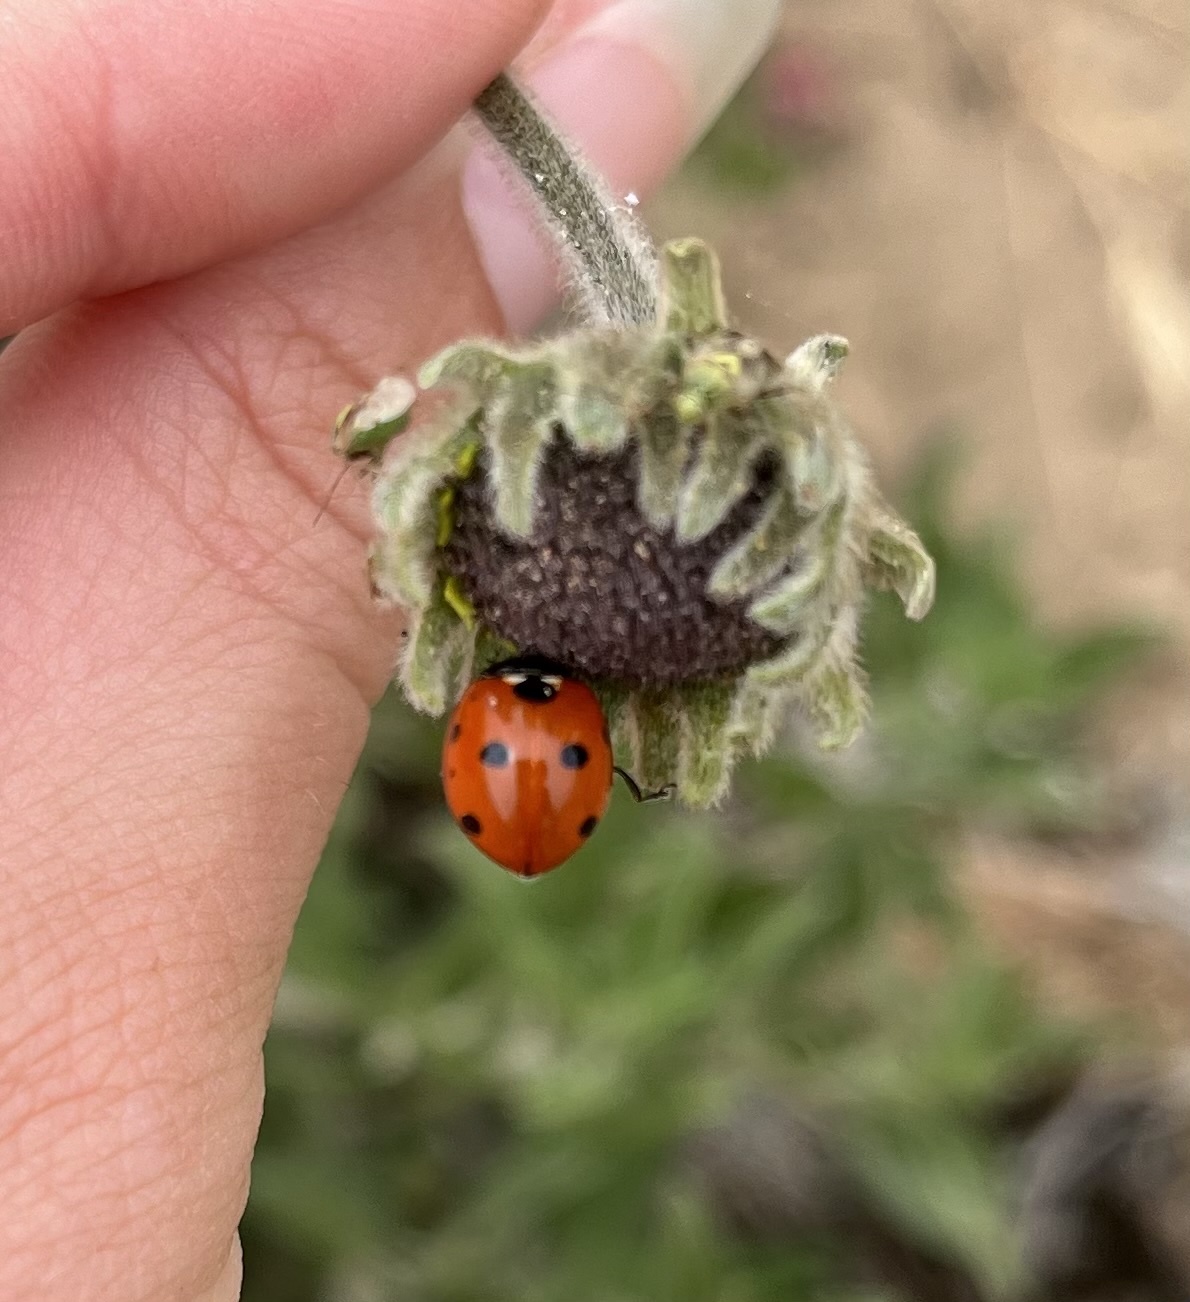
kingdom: Animalia
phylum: Arthropoda
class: Insecta
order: Coleoptera
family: Coccinellidae
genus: Coccinella
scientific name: Coccinella septempunctata
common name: Sevenspotted lady beetle
